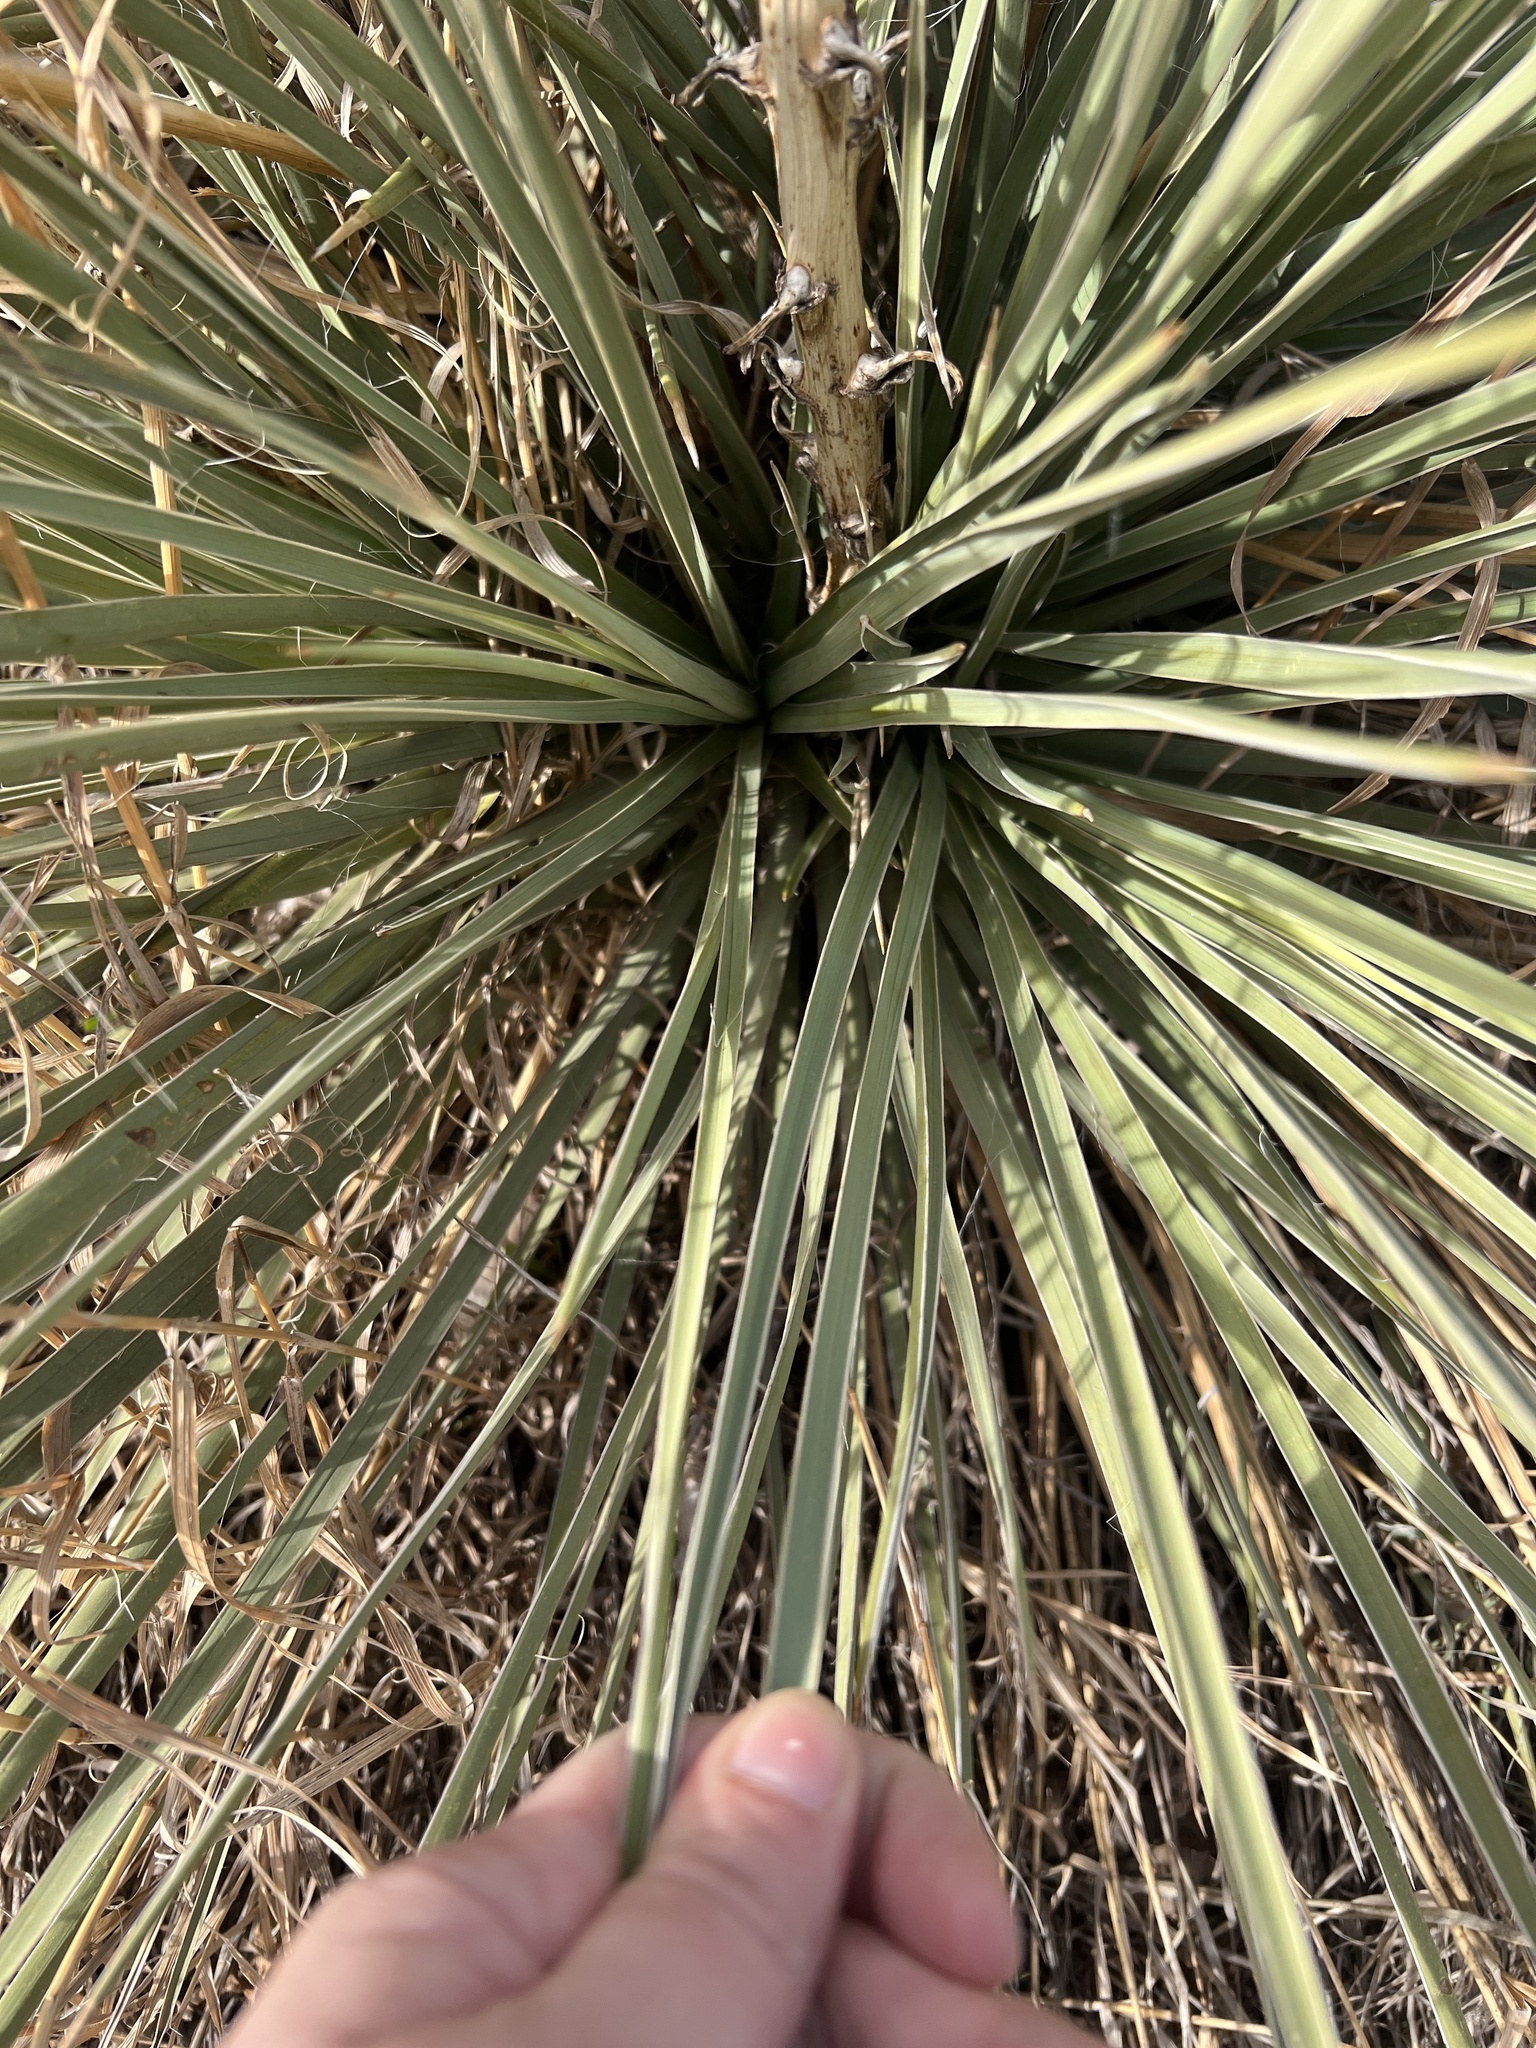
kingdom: Plantae
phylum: Tracheophyta
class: Liliopsida
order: Asparagales
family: Asparagaceae
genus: Yucca
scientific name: Yucca glauca
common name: Great plains yucca
